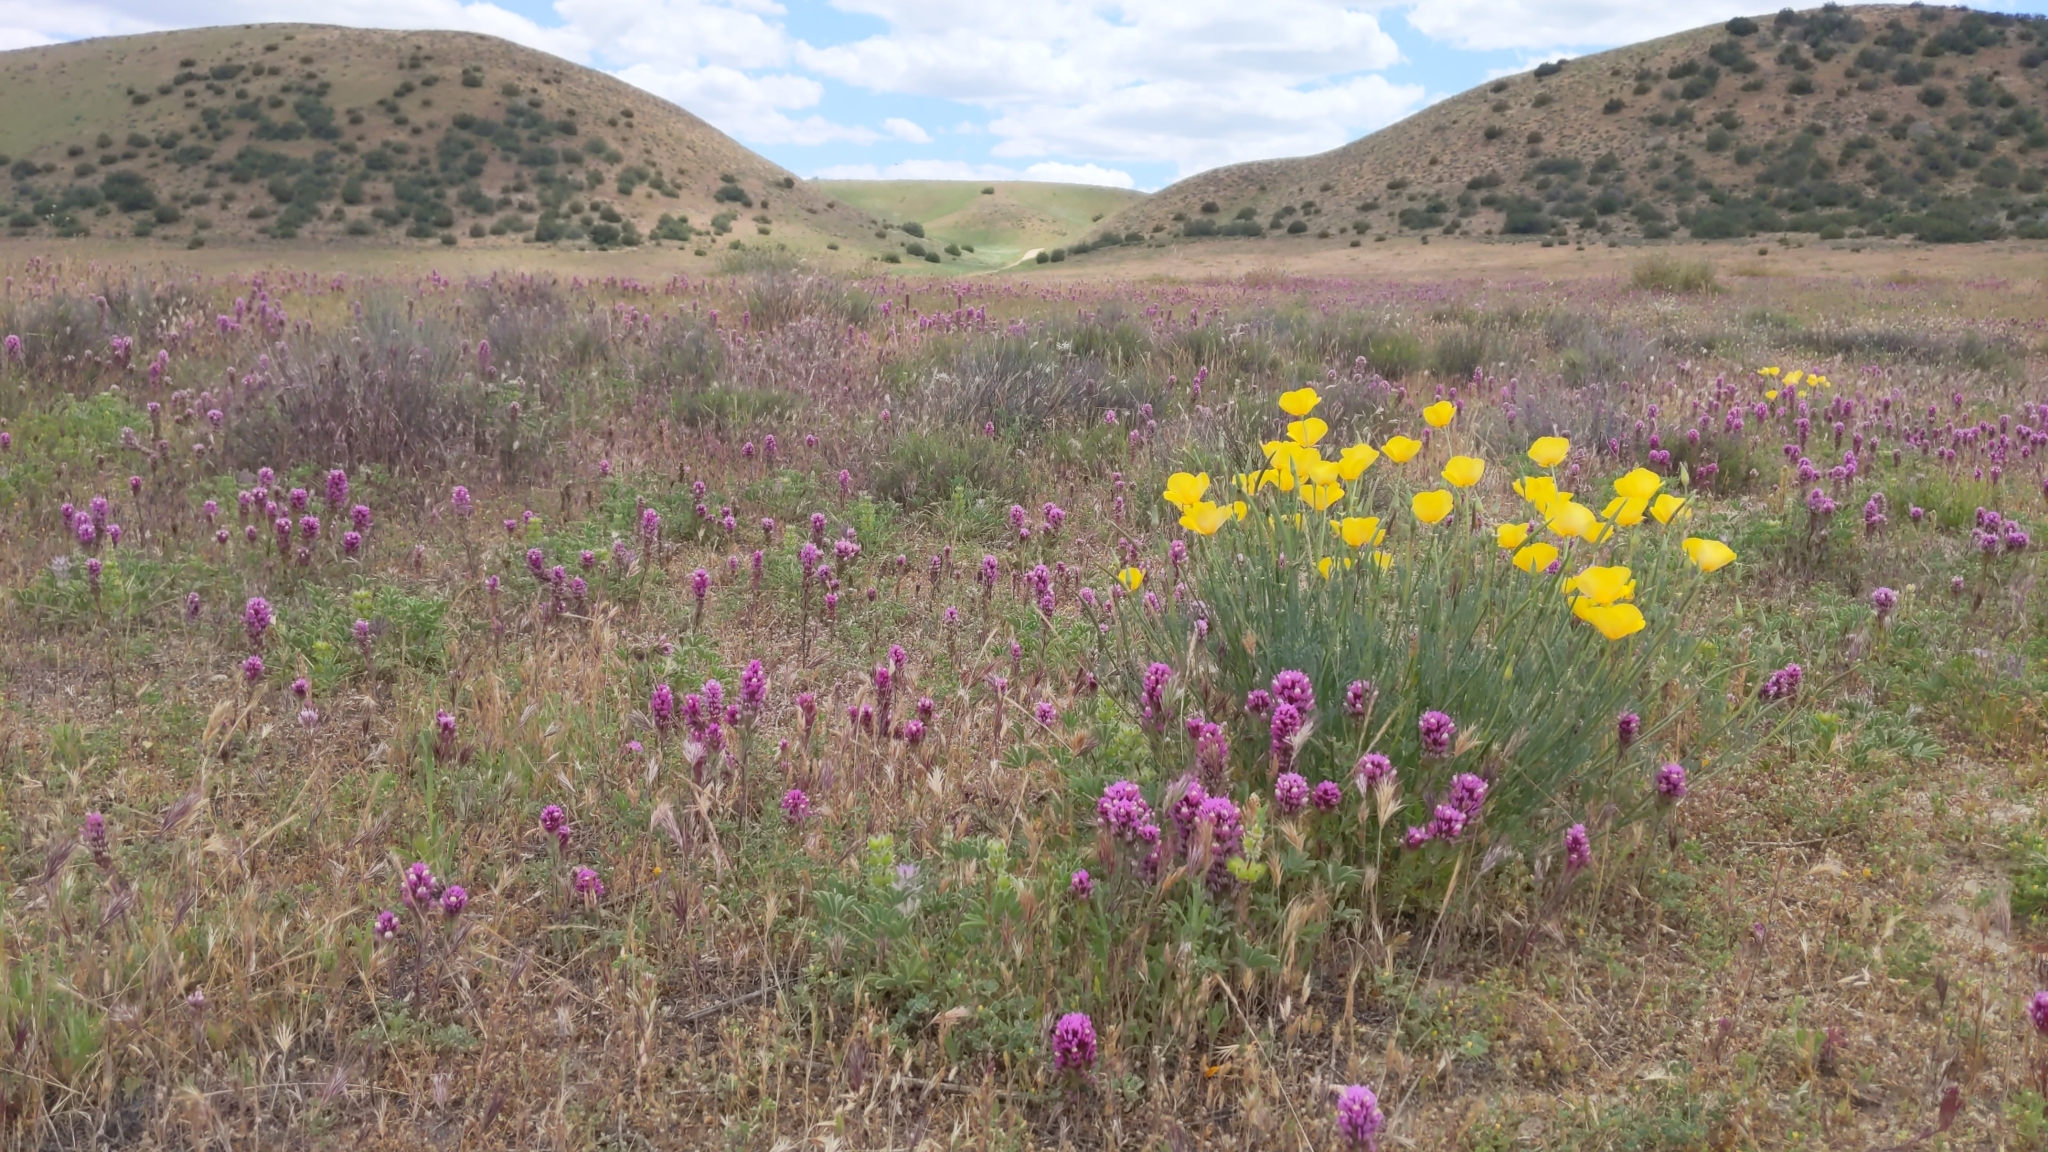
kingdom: Plantae
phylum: Tracheophyta
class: Magnoliopsida
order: Ranunculales
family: Papaveraceae
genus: Eschscholzia
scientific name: Eschscholzia californica
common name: California poppy
